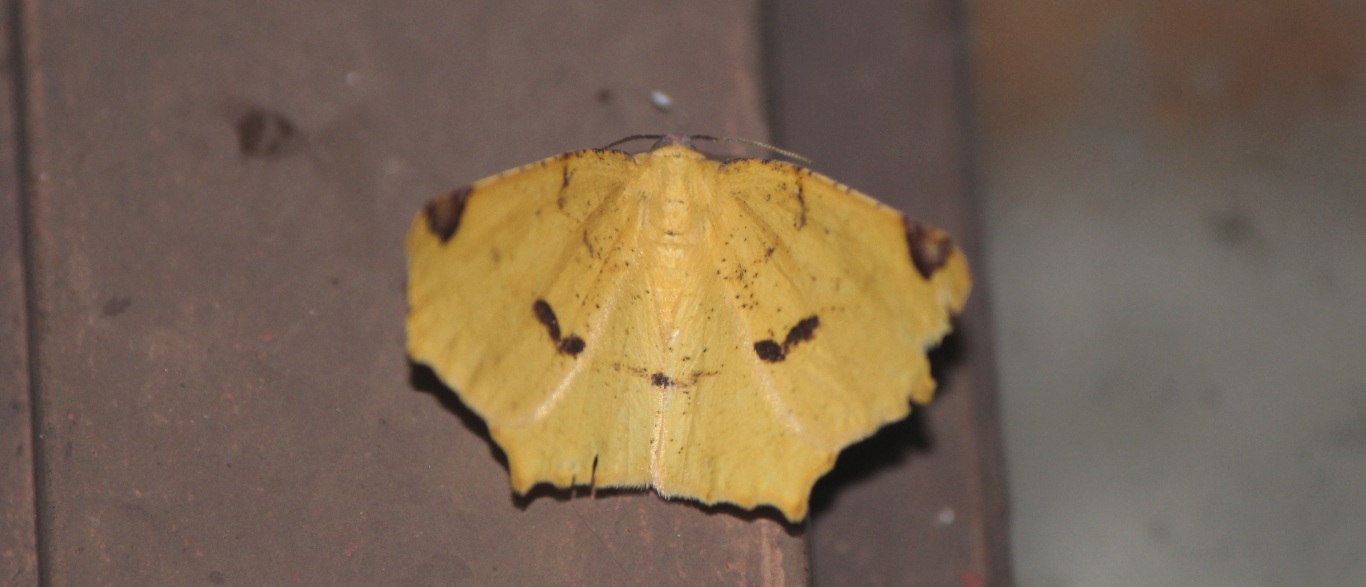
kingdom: Animalia
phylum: Arthropoda
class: Insecta
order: Lepidoptera
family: Geometridae
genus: Antepione
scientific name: Antepione thisoaria
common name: Variable antipione
